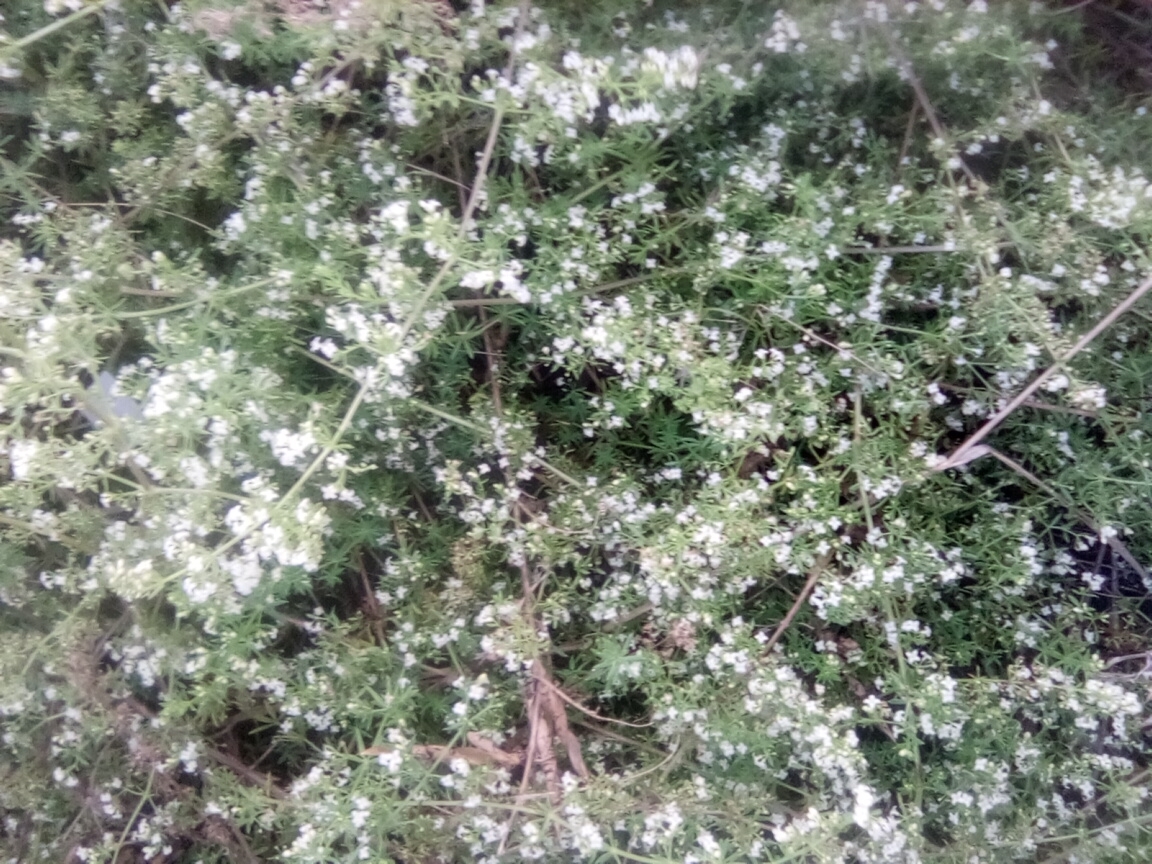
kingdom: Plantae
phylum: Tracheophyta
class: Magnoliopsida
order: Gentianales
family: Rubiaceae
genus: Galium
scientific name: Galium humifusum
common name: Spreading bedstraw
